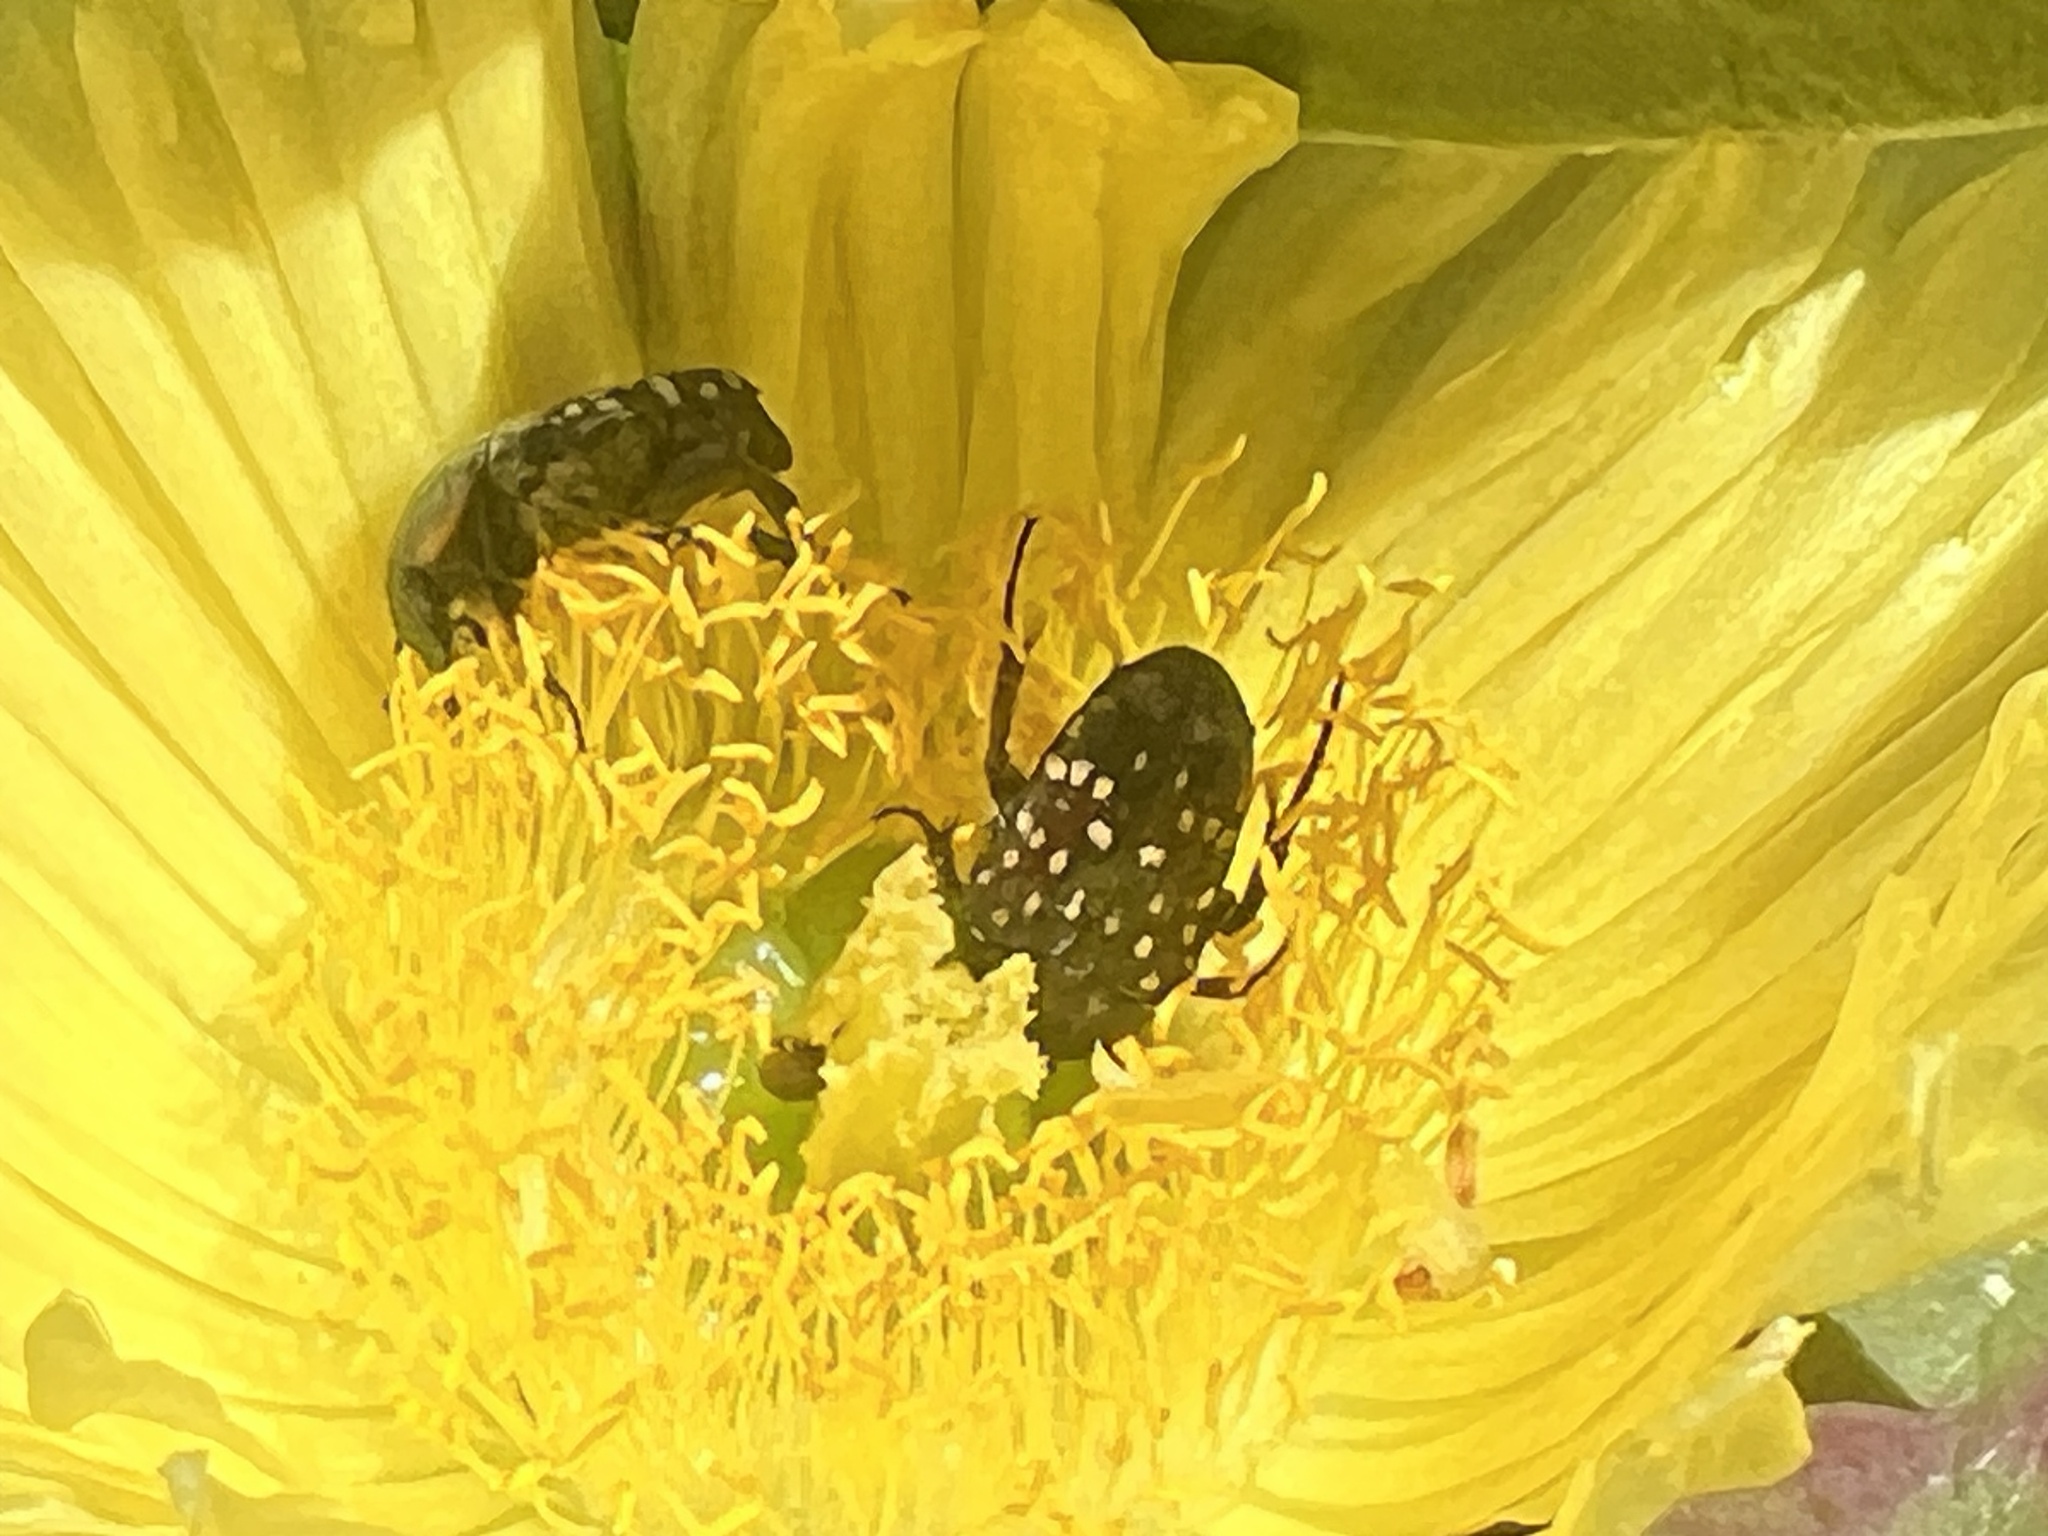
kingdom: Animalia
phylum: Arthropoda
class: Insecta
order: Coleoptera
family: Scarabaeidae
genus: Oxythyrea
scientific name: Oxythyrea
